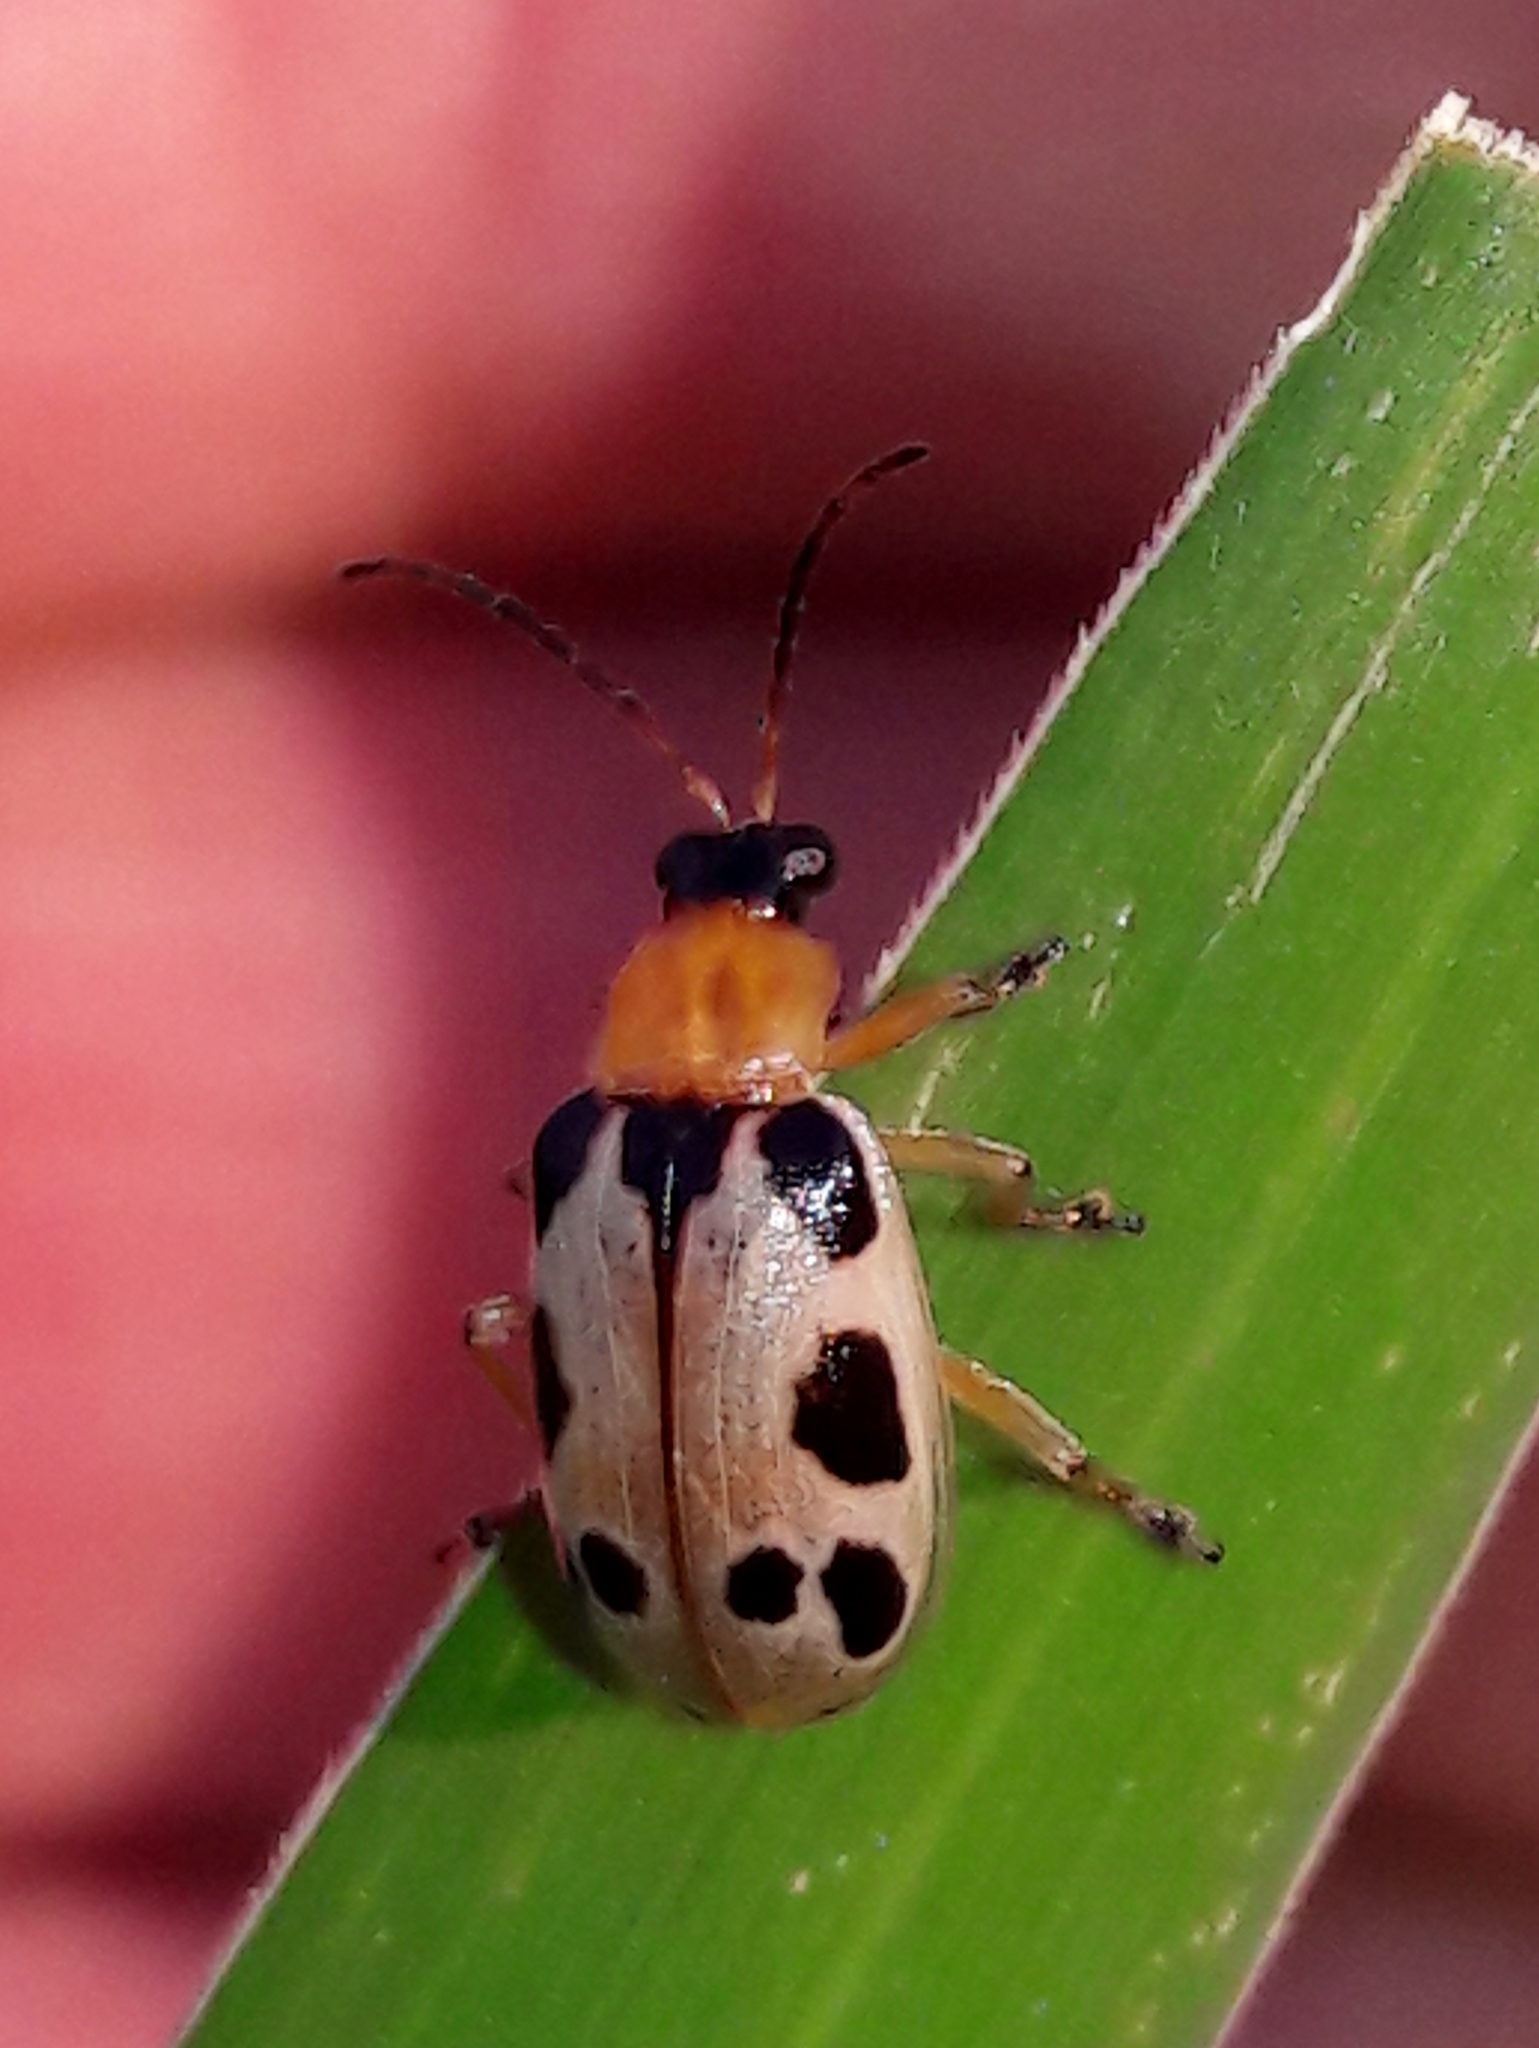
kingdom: Animalia
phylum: Arthropoda
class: Insecta
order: Coleoptera
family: Chrysomelidae
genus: Basiprionota
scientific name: Basiprionota sinuata
